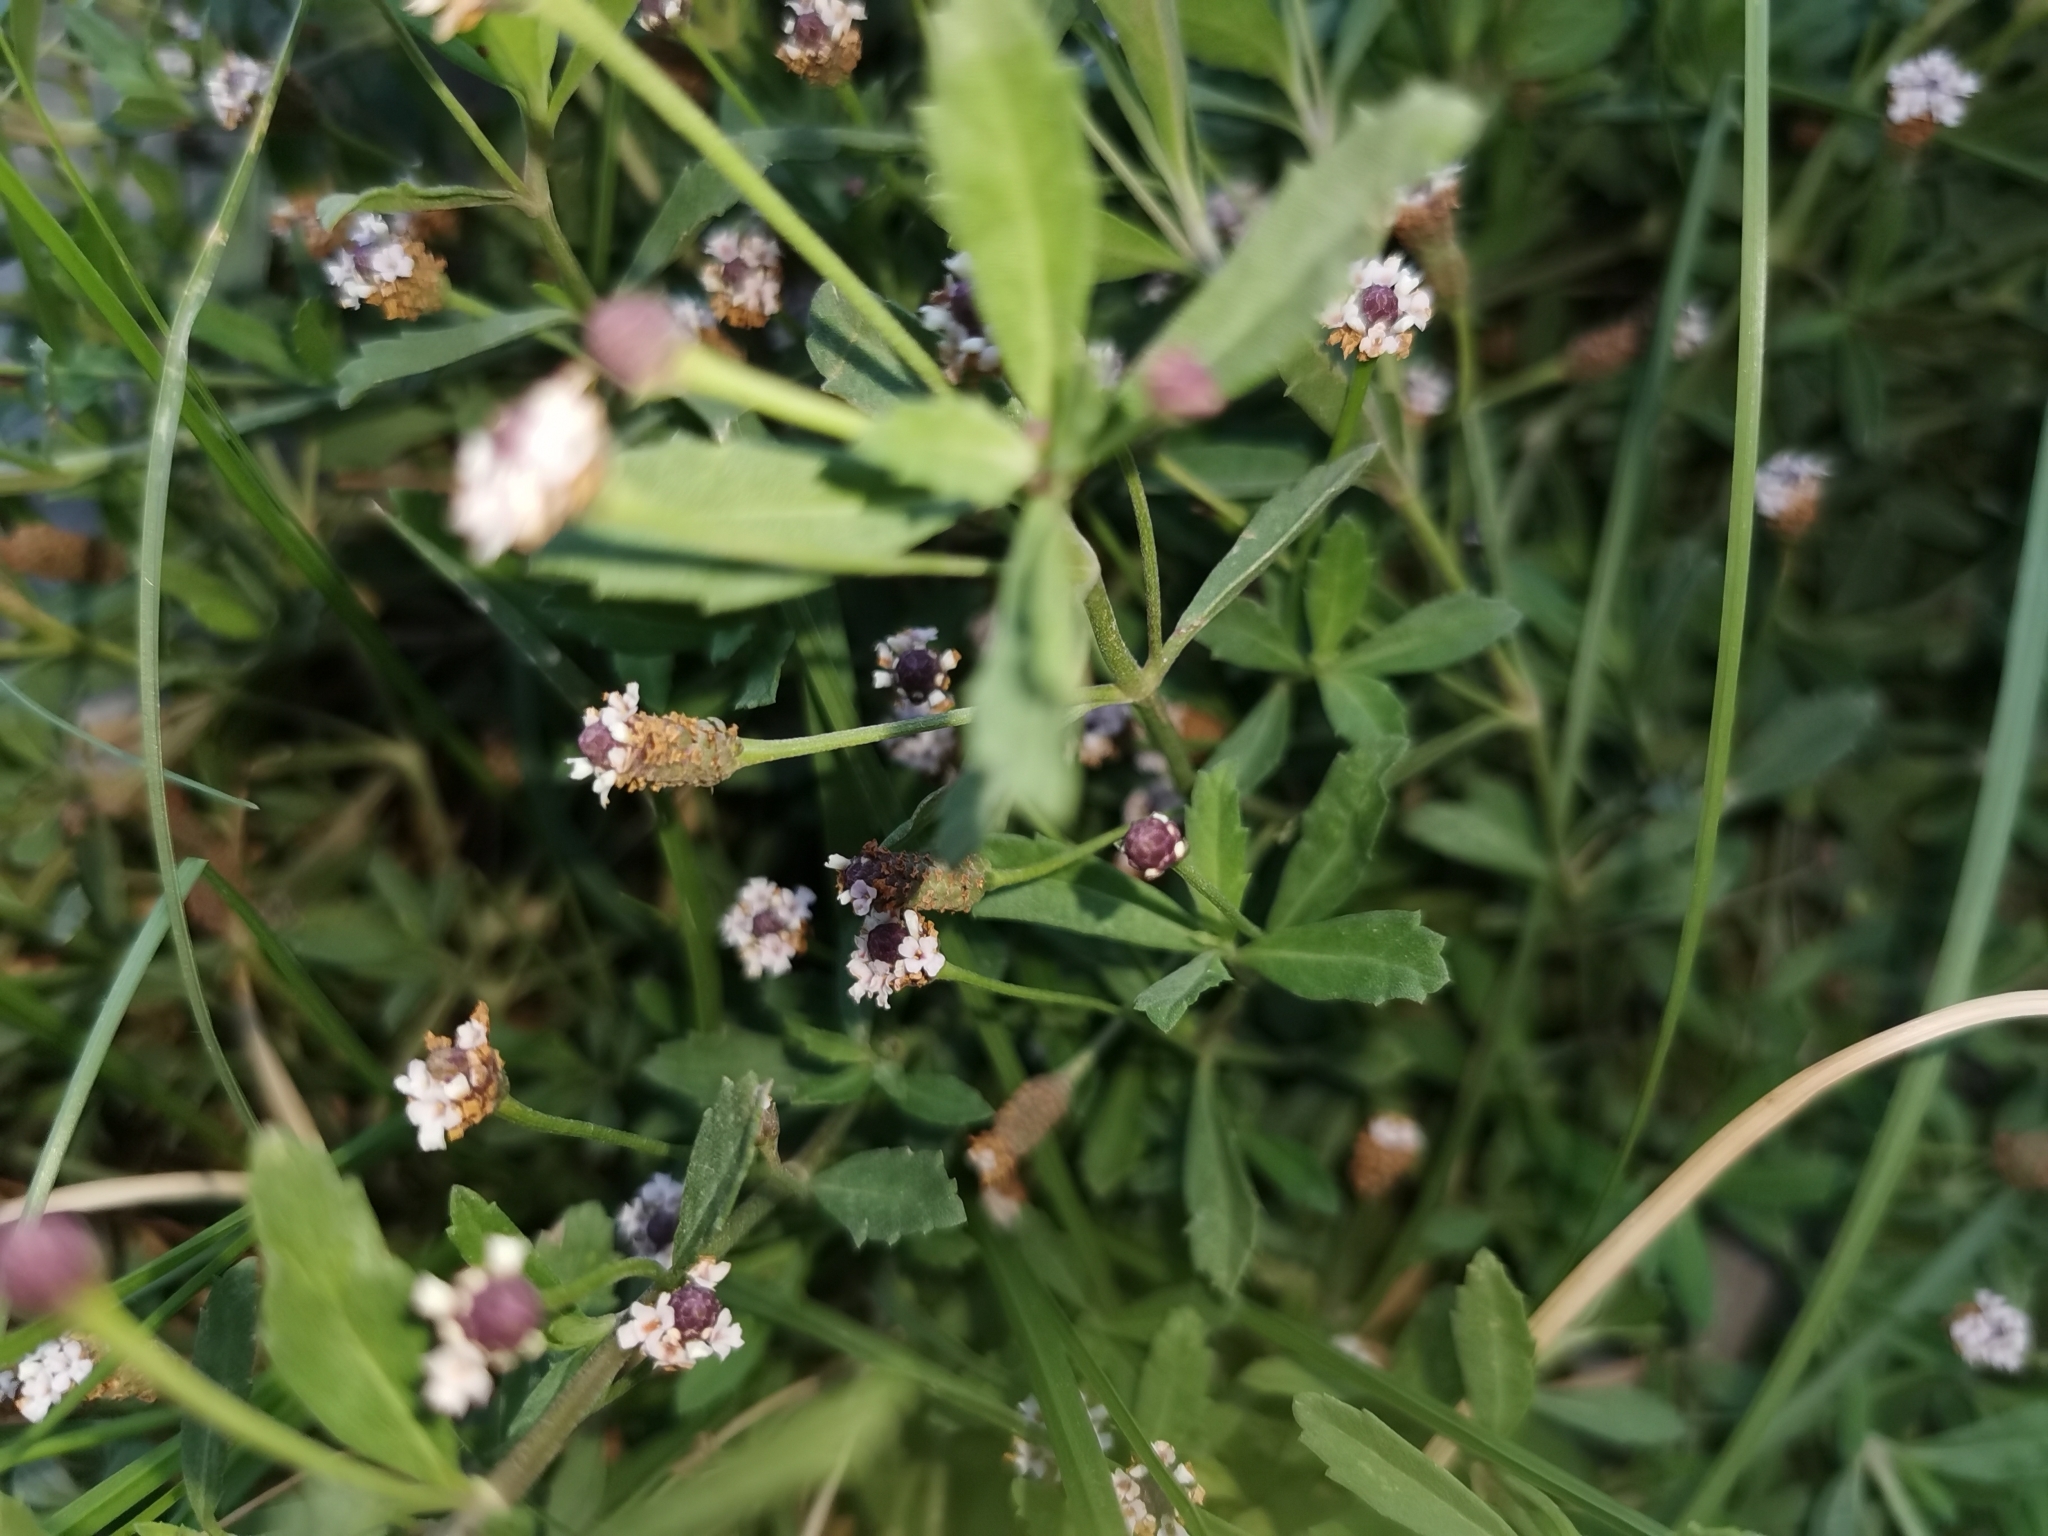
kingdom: Plantae
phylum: Tracheophyta
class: Magnoliopsida
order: Lamiales
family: Verbenaceae
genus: Phyla
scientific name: Phyla nodiflora
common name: Frogfruit
